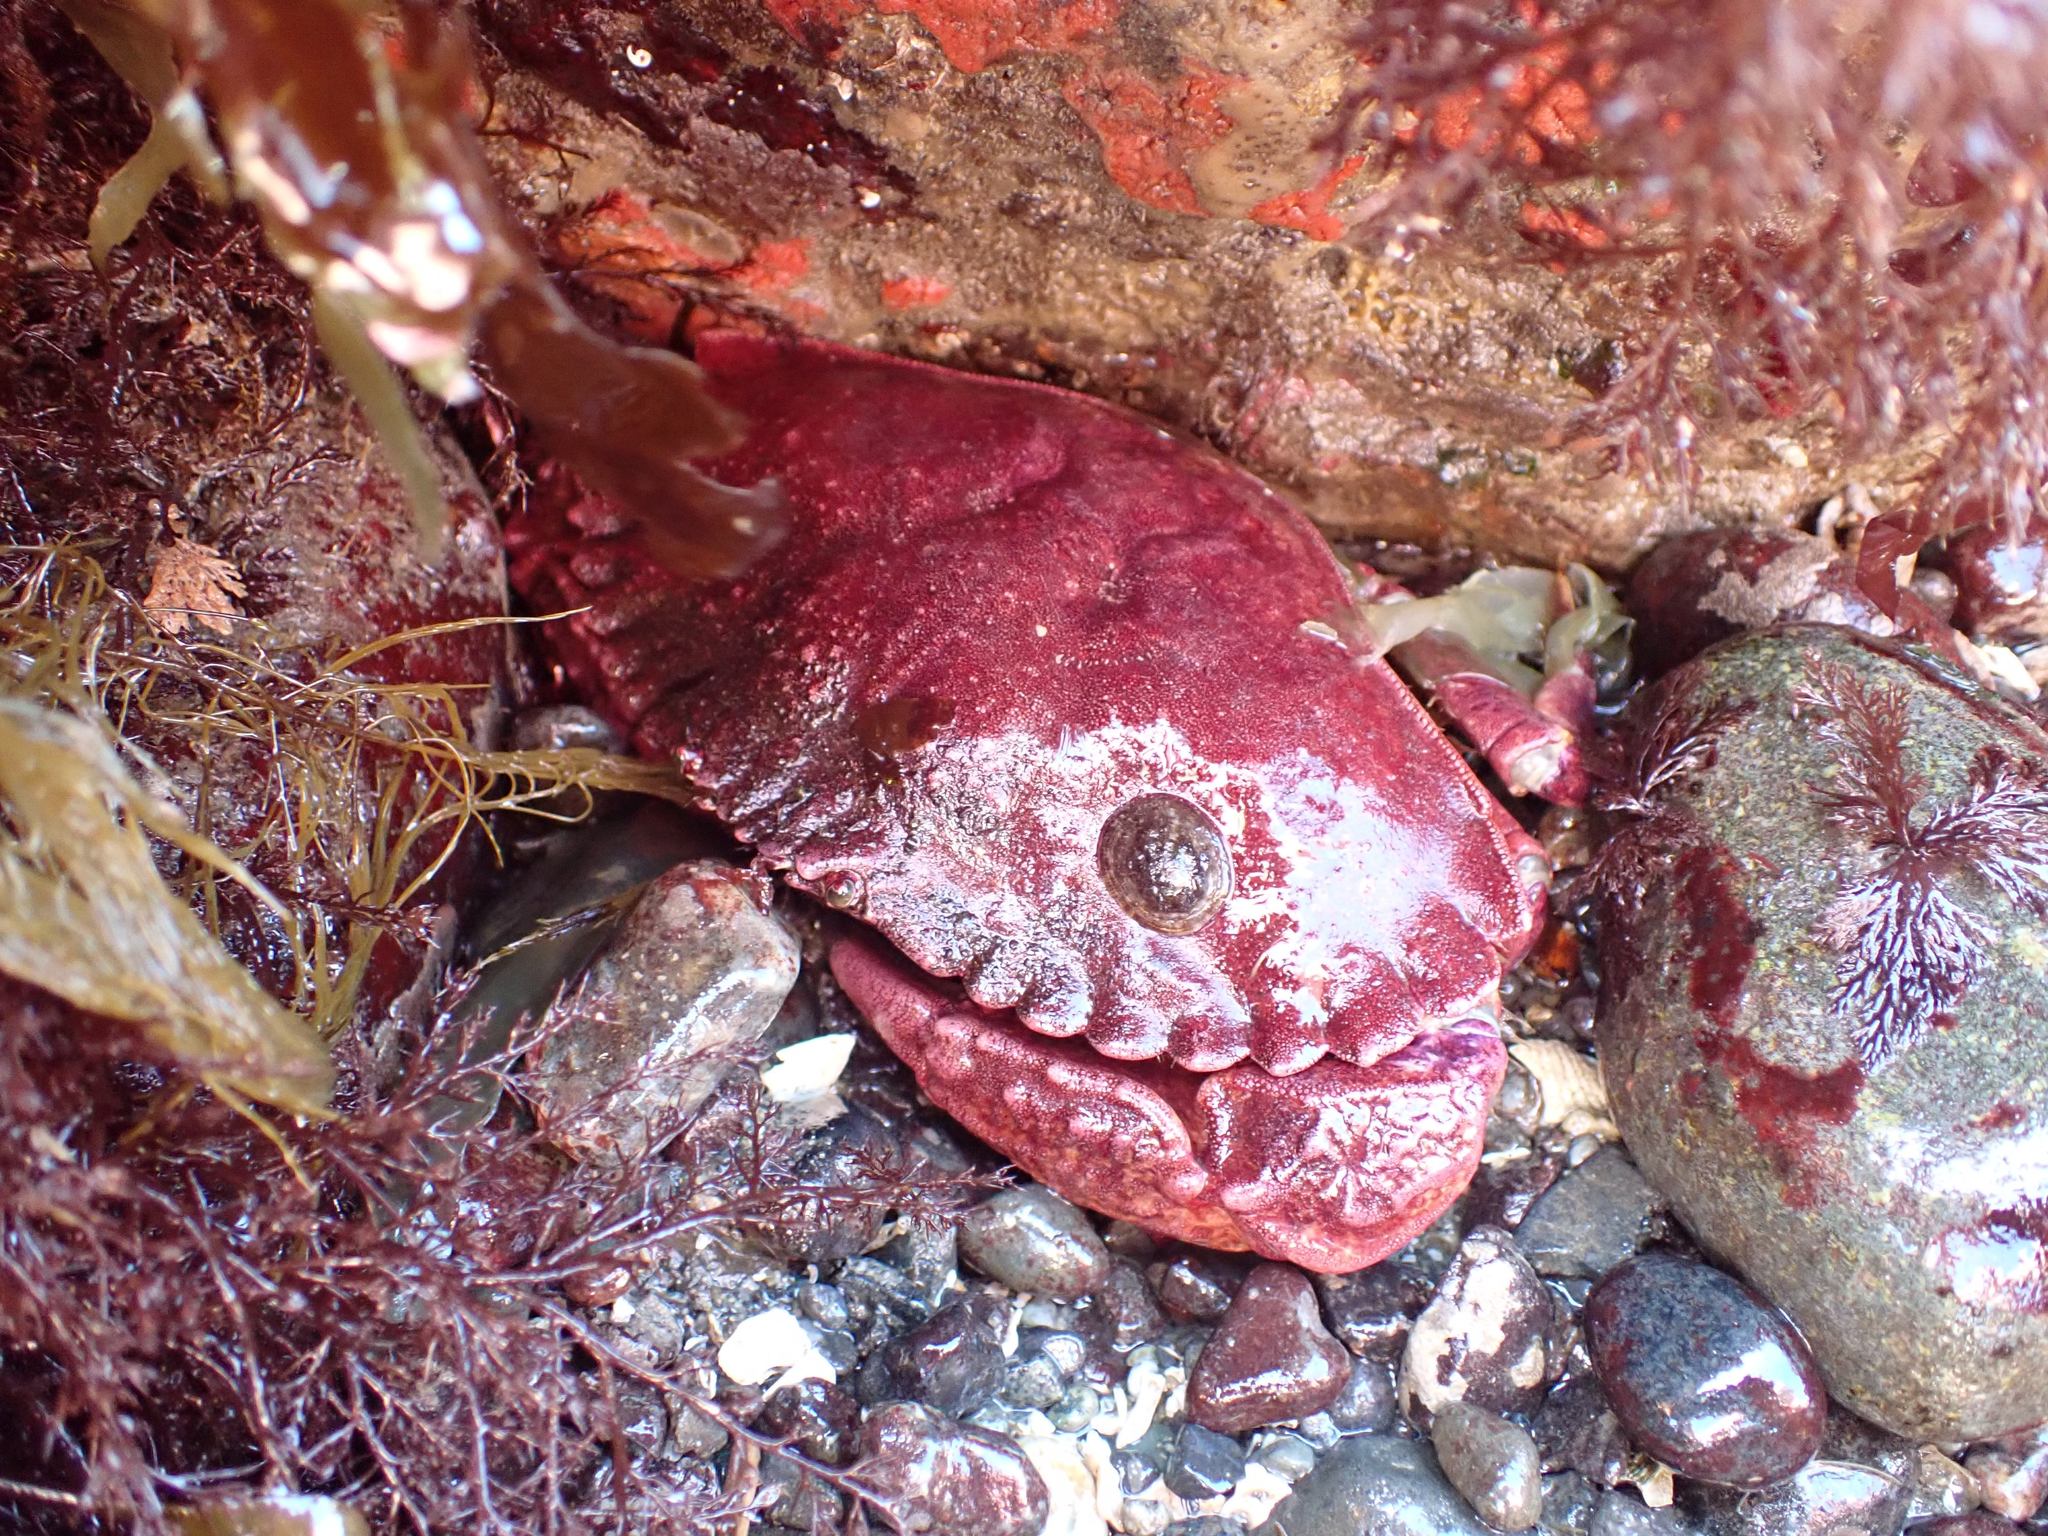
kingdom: Animalia
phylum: Arthropoda
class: Malacostraca
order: Decapoda
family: Cancridae
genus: Cancer
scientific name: Cancer productus
